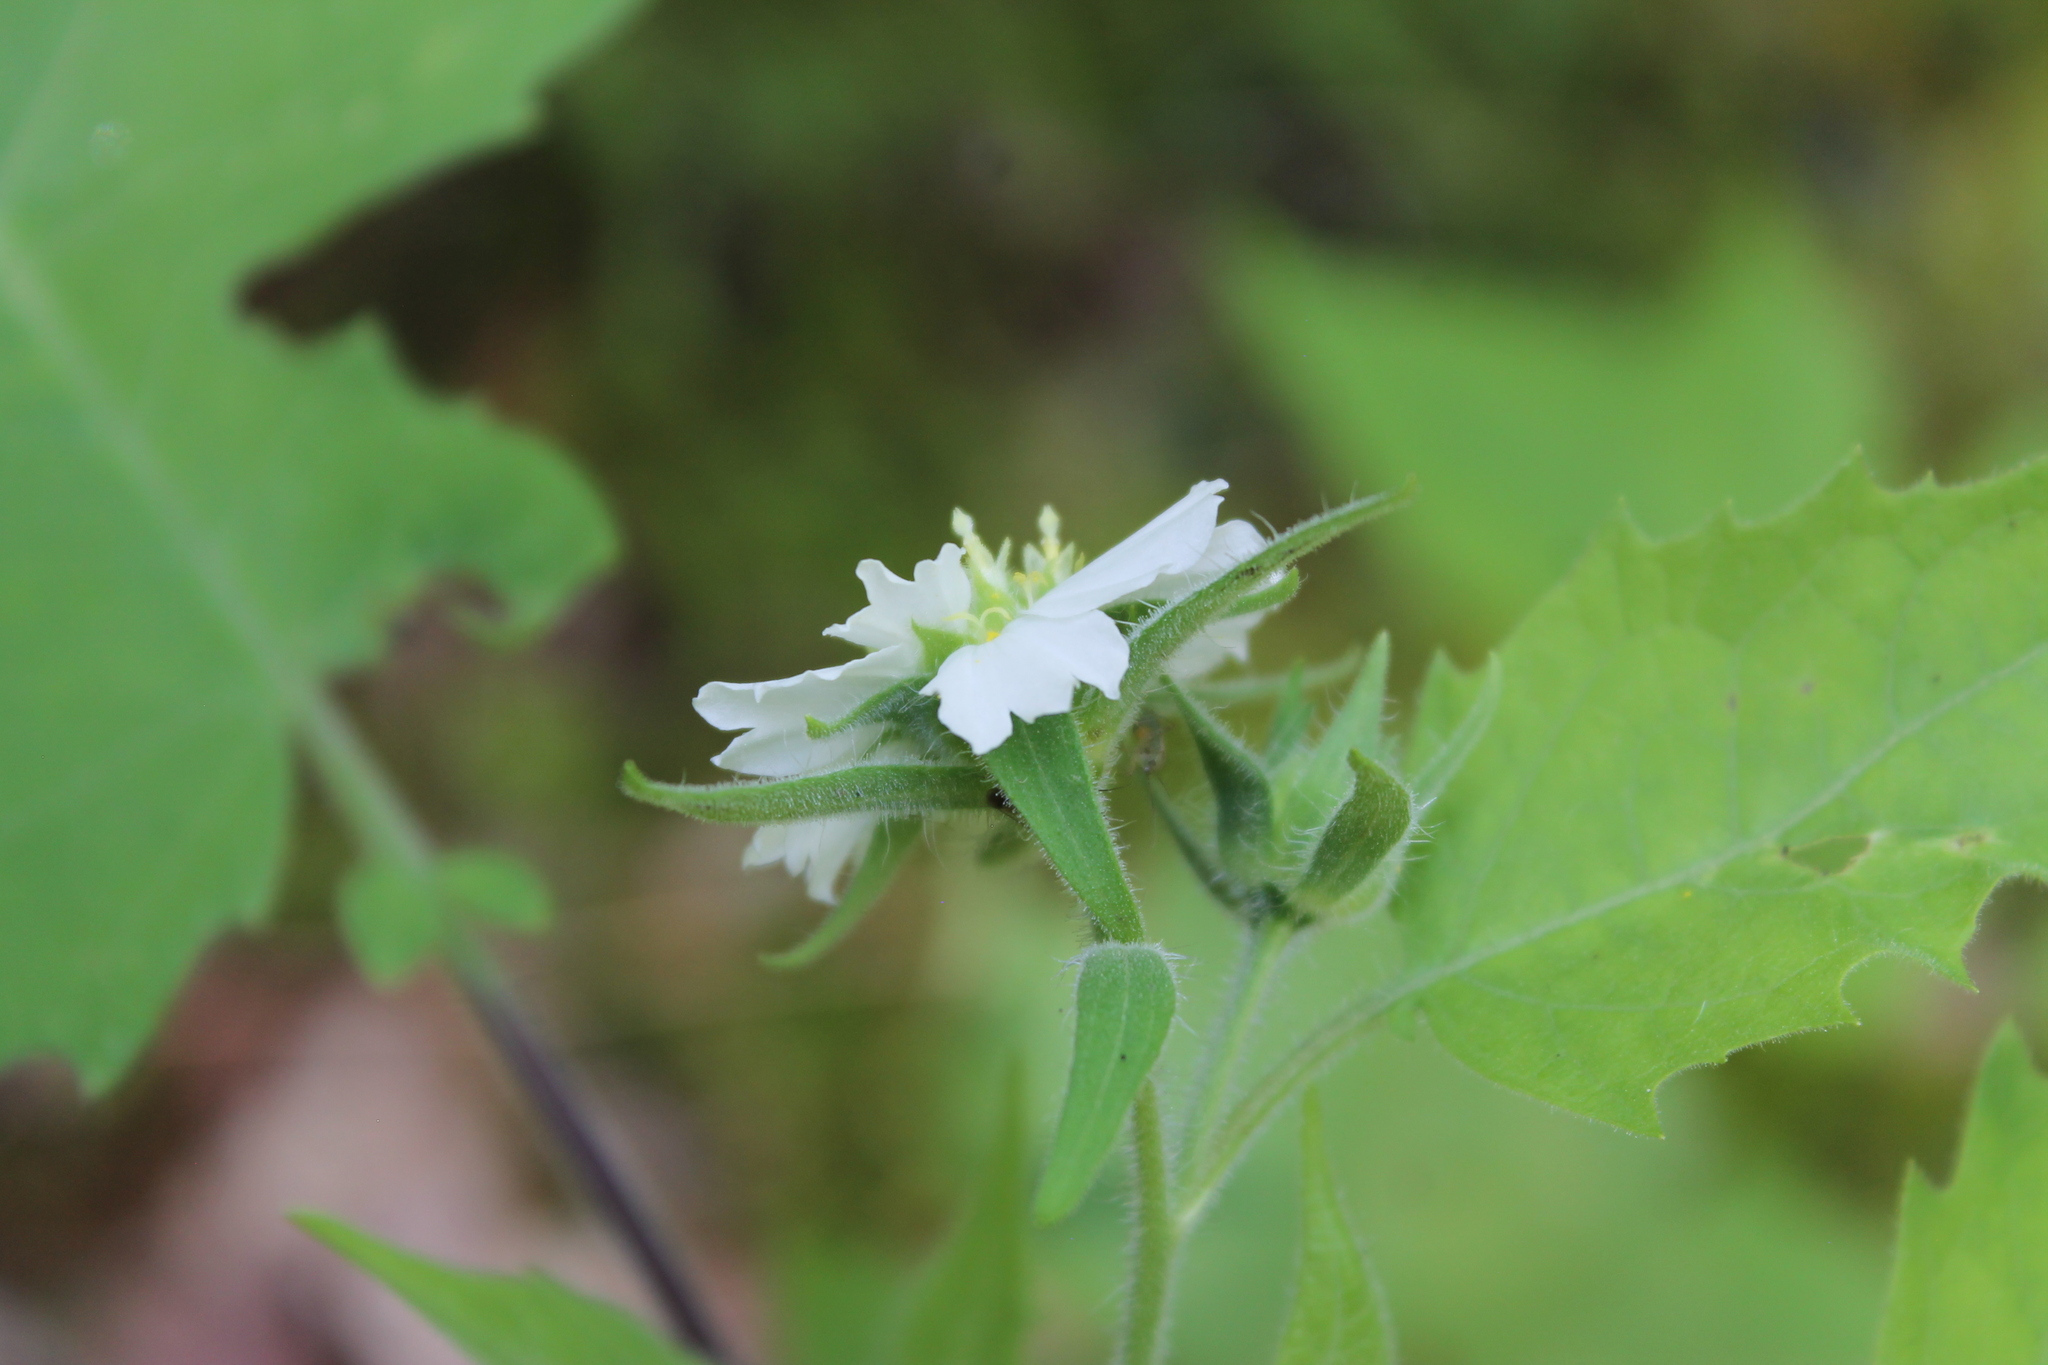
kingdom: Plantae
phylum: Tracheophyta
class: Magnoliopsida
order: Asterales
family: Asteraceae
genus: Polymnia
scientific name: Polymnia canadensis
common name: Pale-flowered leafcup
